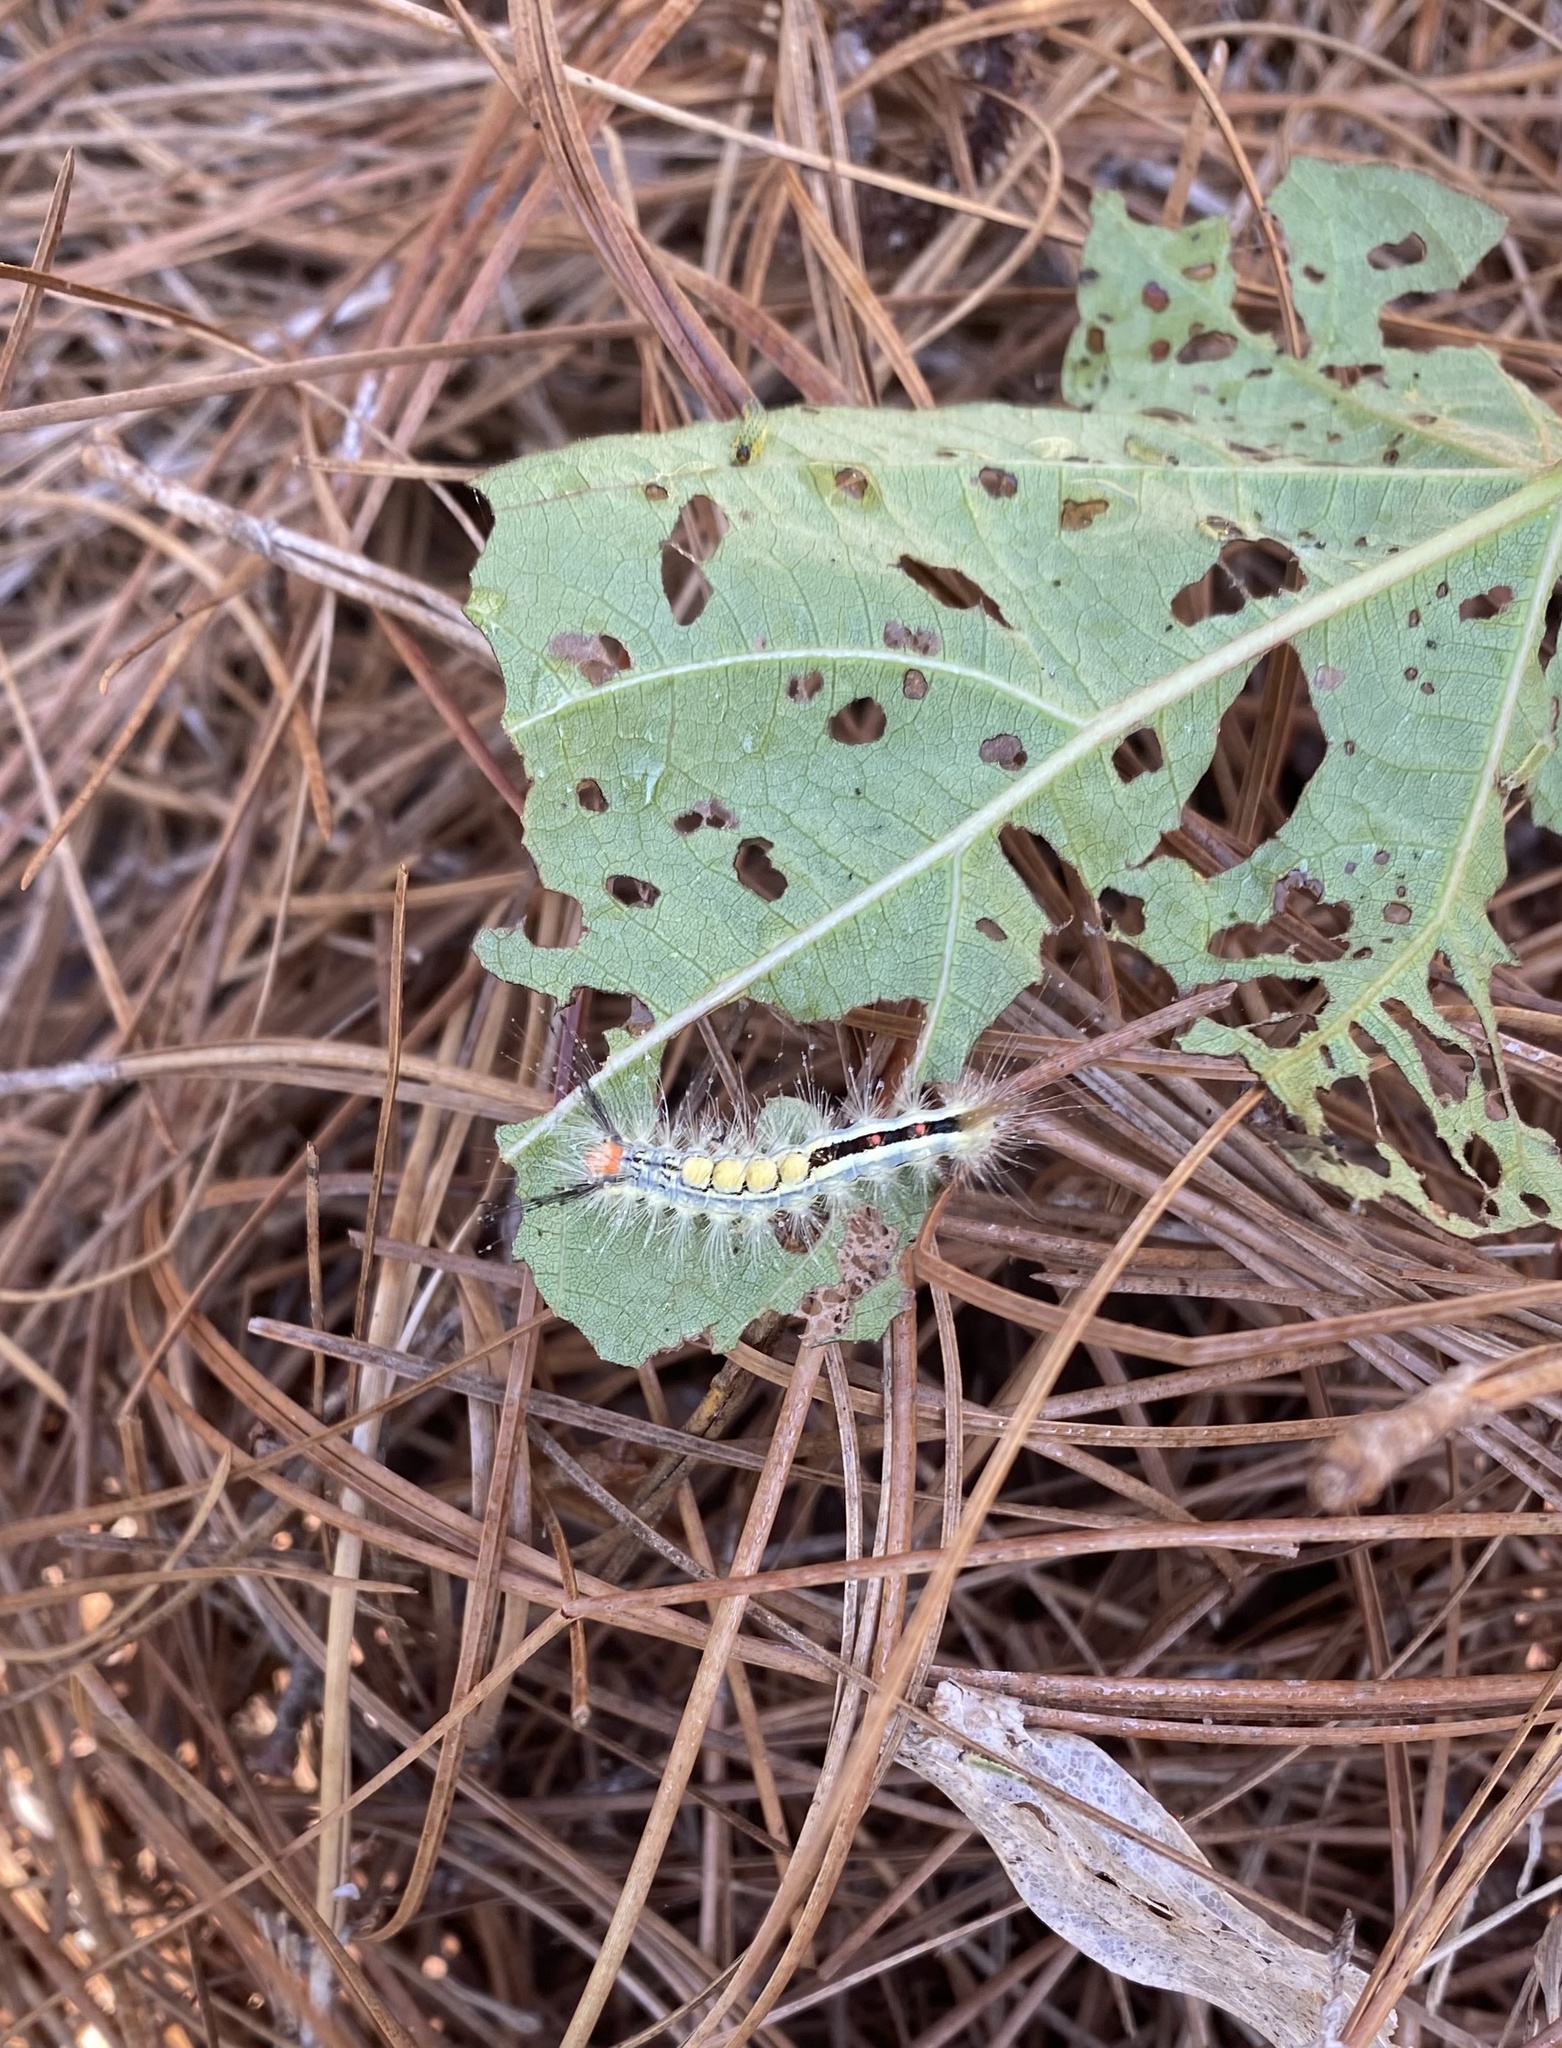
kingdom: Animalia
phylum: Arthropoda
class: Insecta
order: Lepidoptera
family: Erebidae
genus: Orgyia
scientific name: Orgyia leucostigma
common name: White-marked tussock moth
